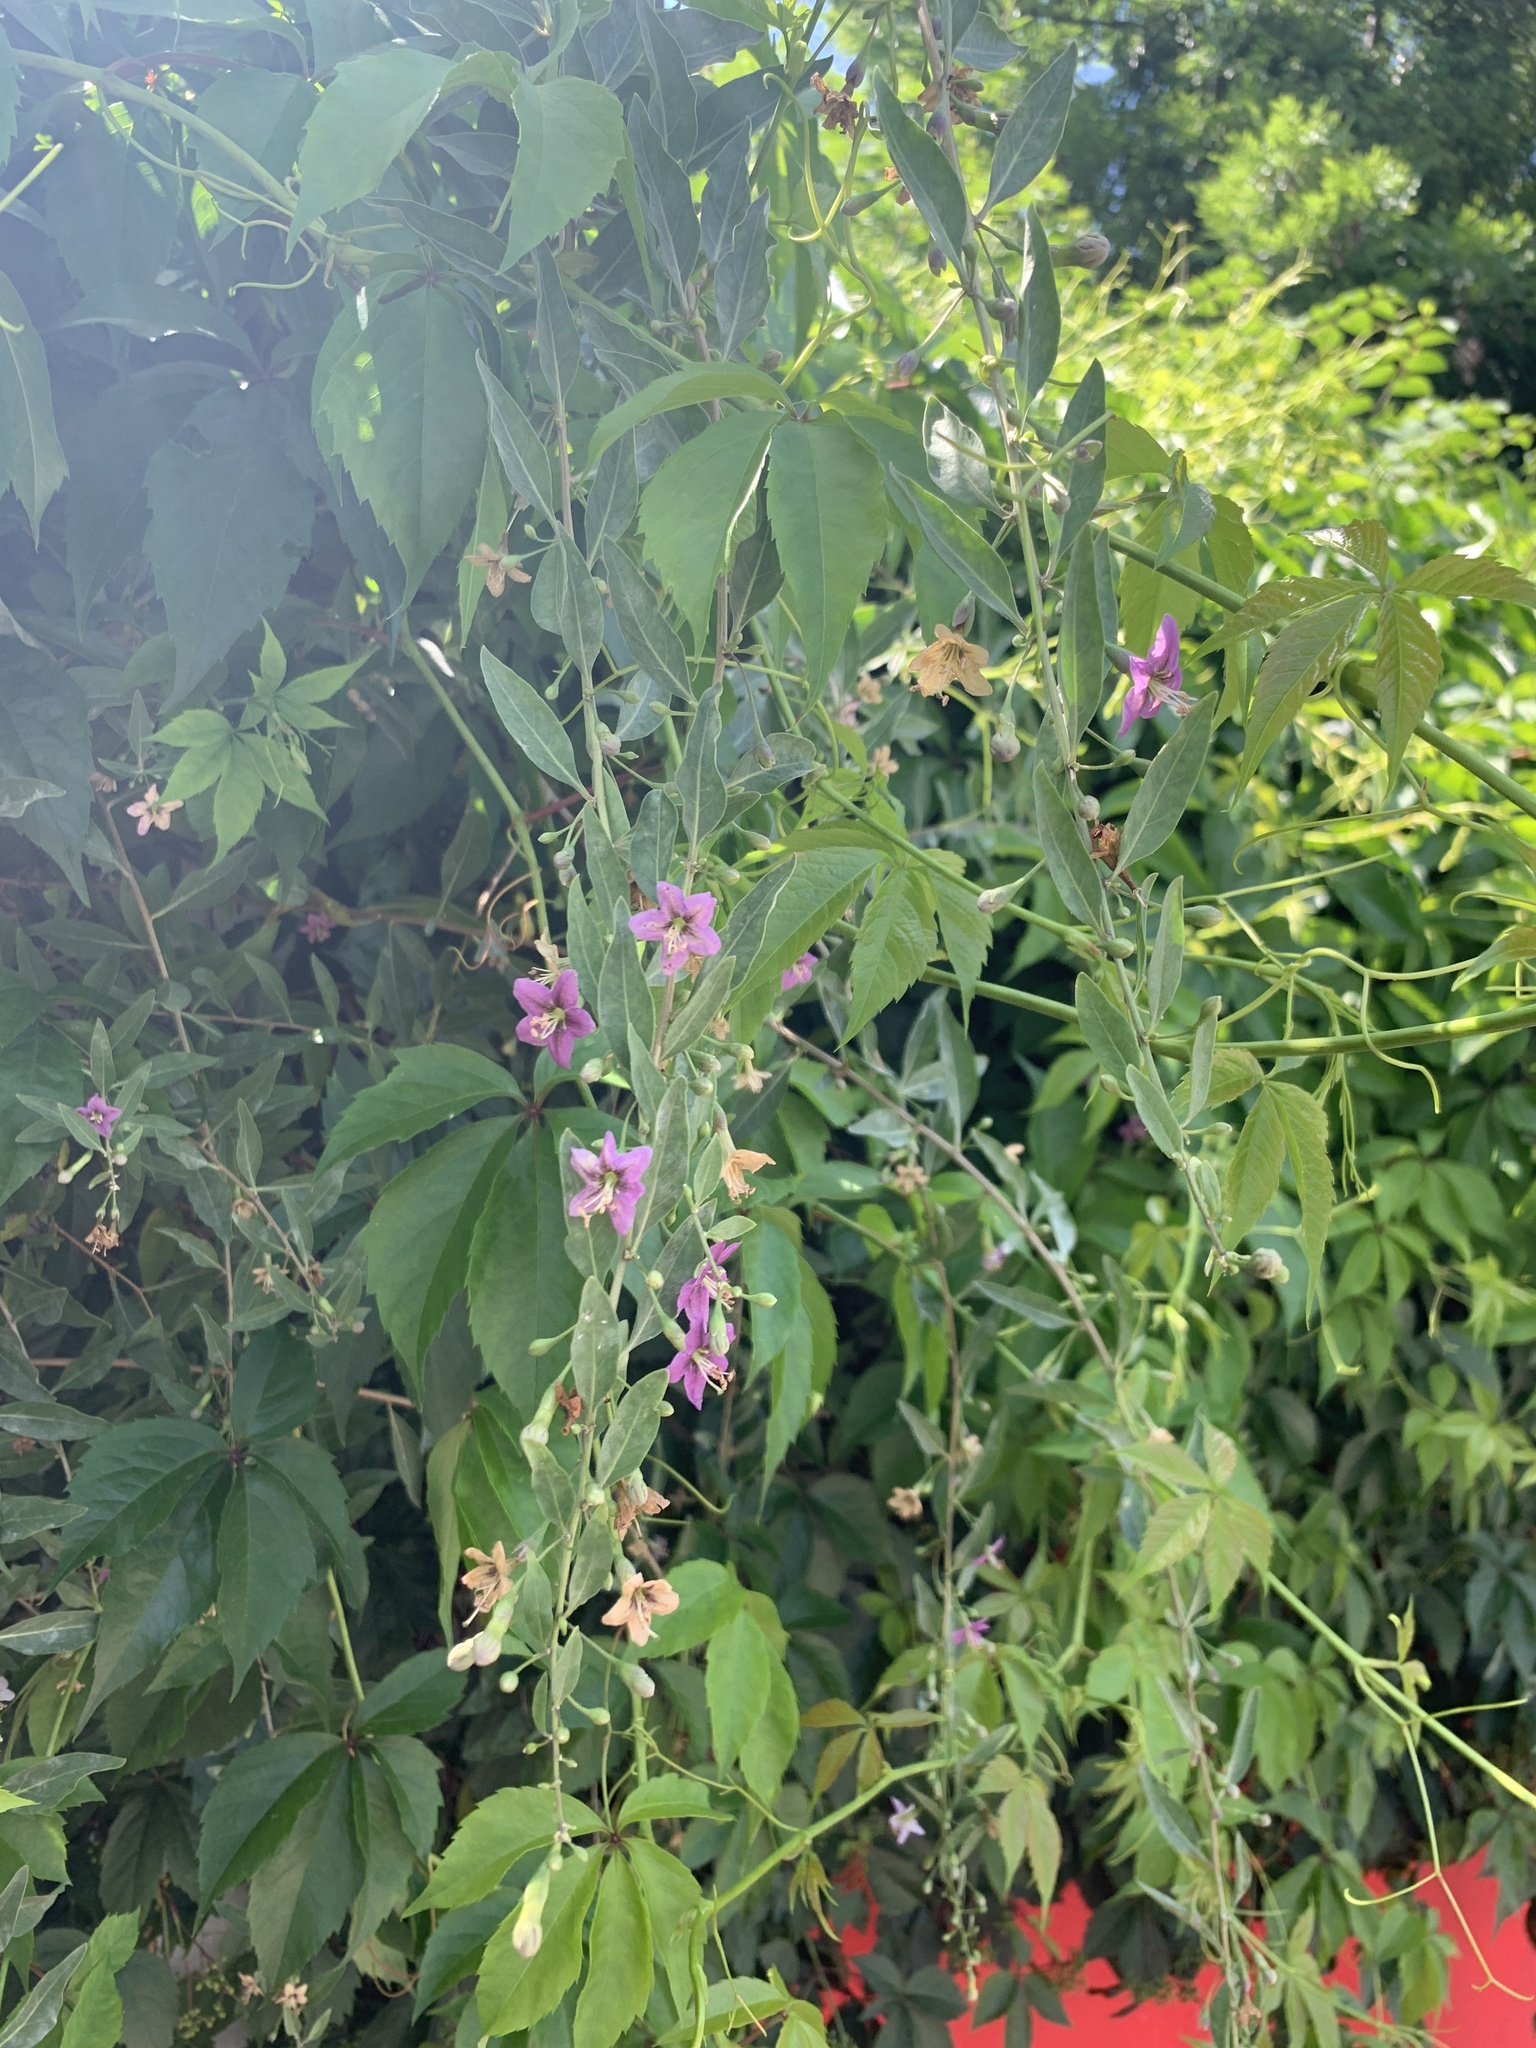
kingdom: Plantae
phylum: Tracheophyta
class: Magnoliopsida
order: Solanales
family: Solanaceae
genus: Lycium
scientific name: Lycium barbarum
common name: Duke of argyll's teaplant
